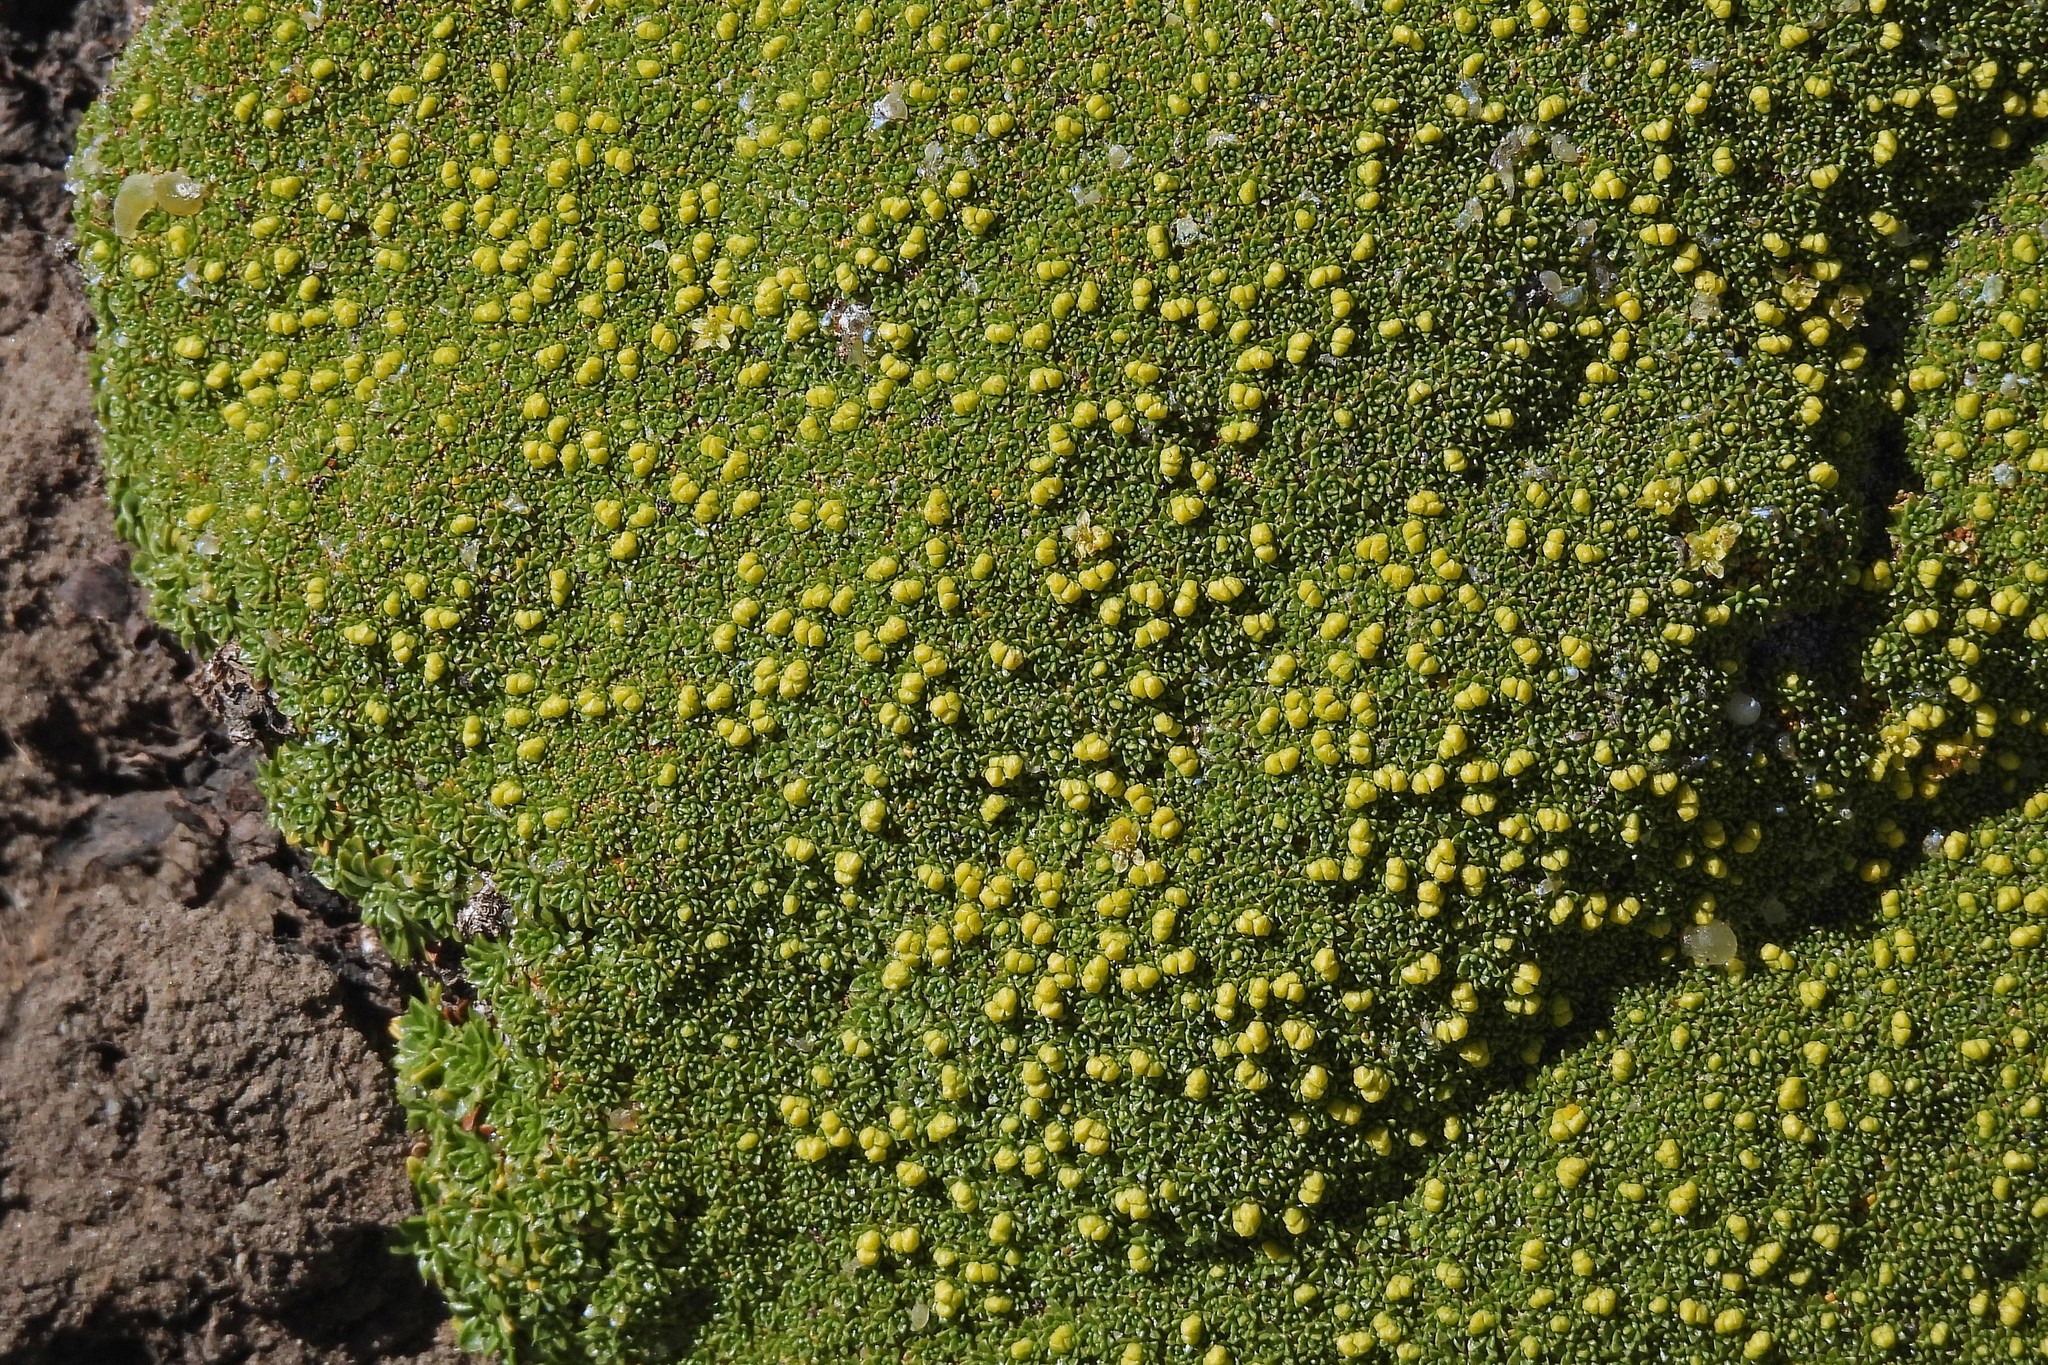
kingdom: Plantae
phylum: Tracheophyta
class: Magnoliopsida
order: Apiales
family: Apiaceae
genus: Azorella
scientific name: Azorella compacta
